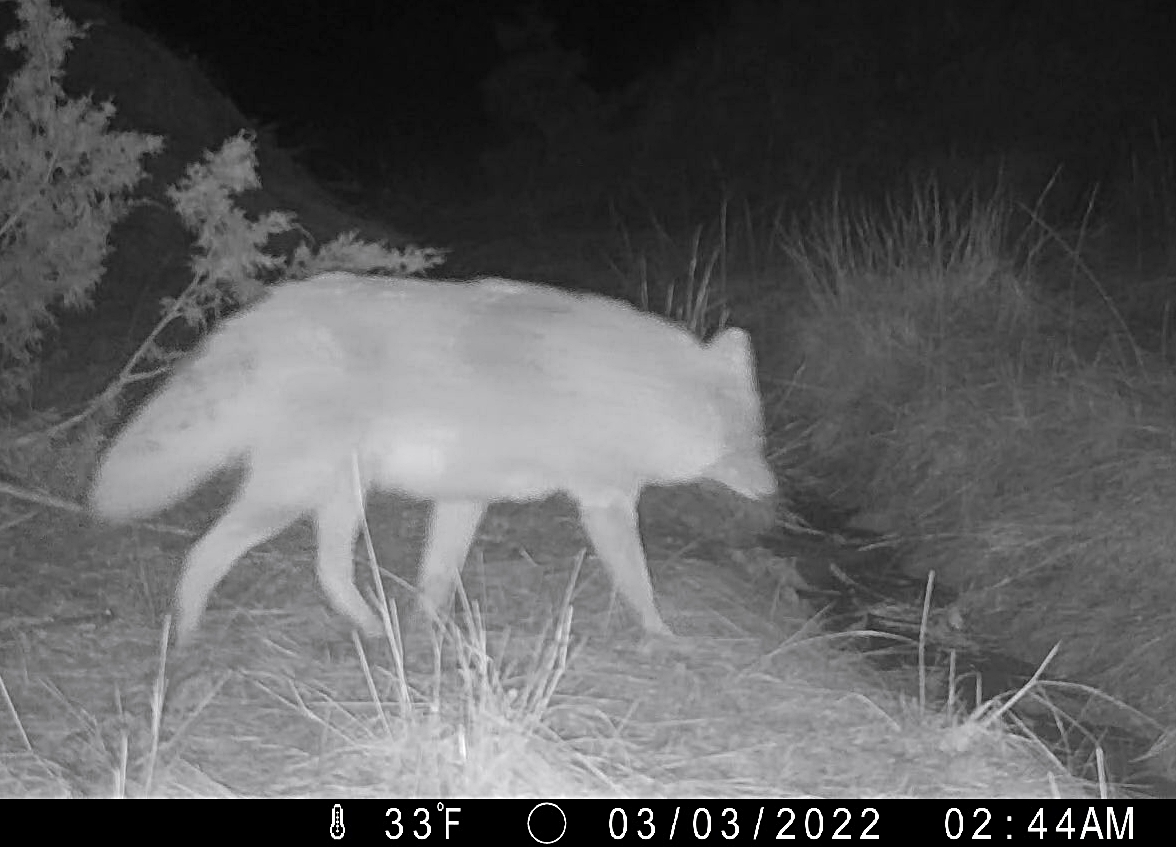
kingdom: Animalia
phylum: Chordata
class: Mammalia
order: Carnivora
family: Canidae
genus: Canis
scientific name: Canis latrans
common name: Coyote
